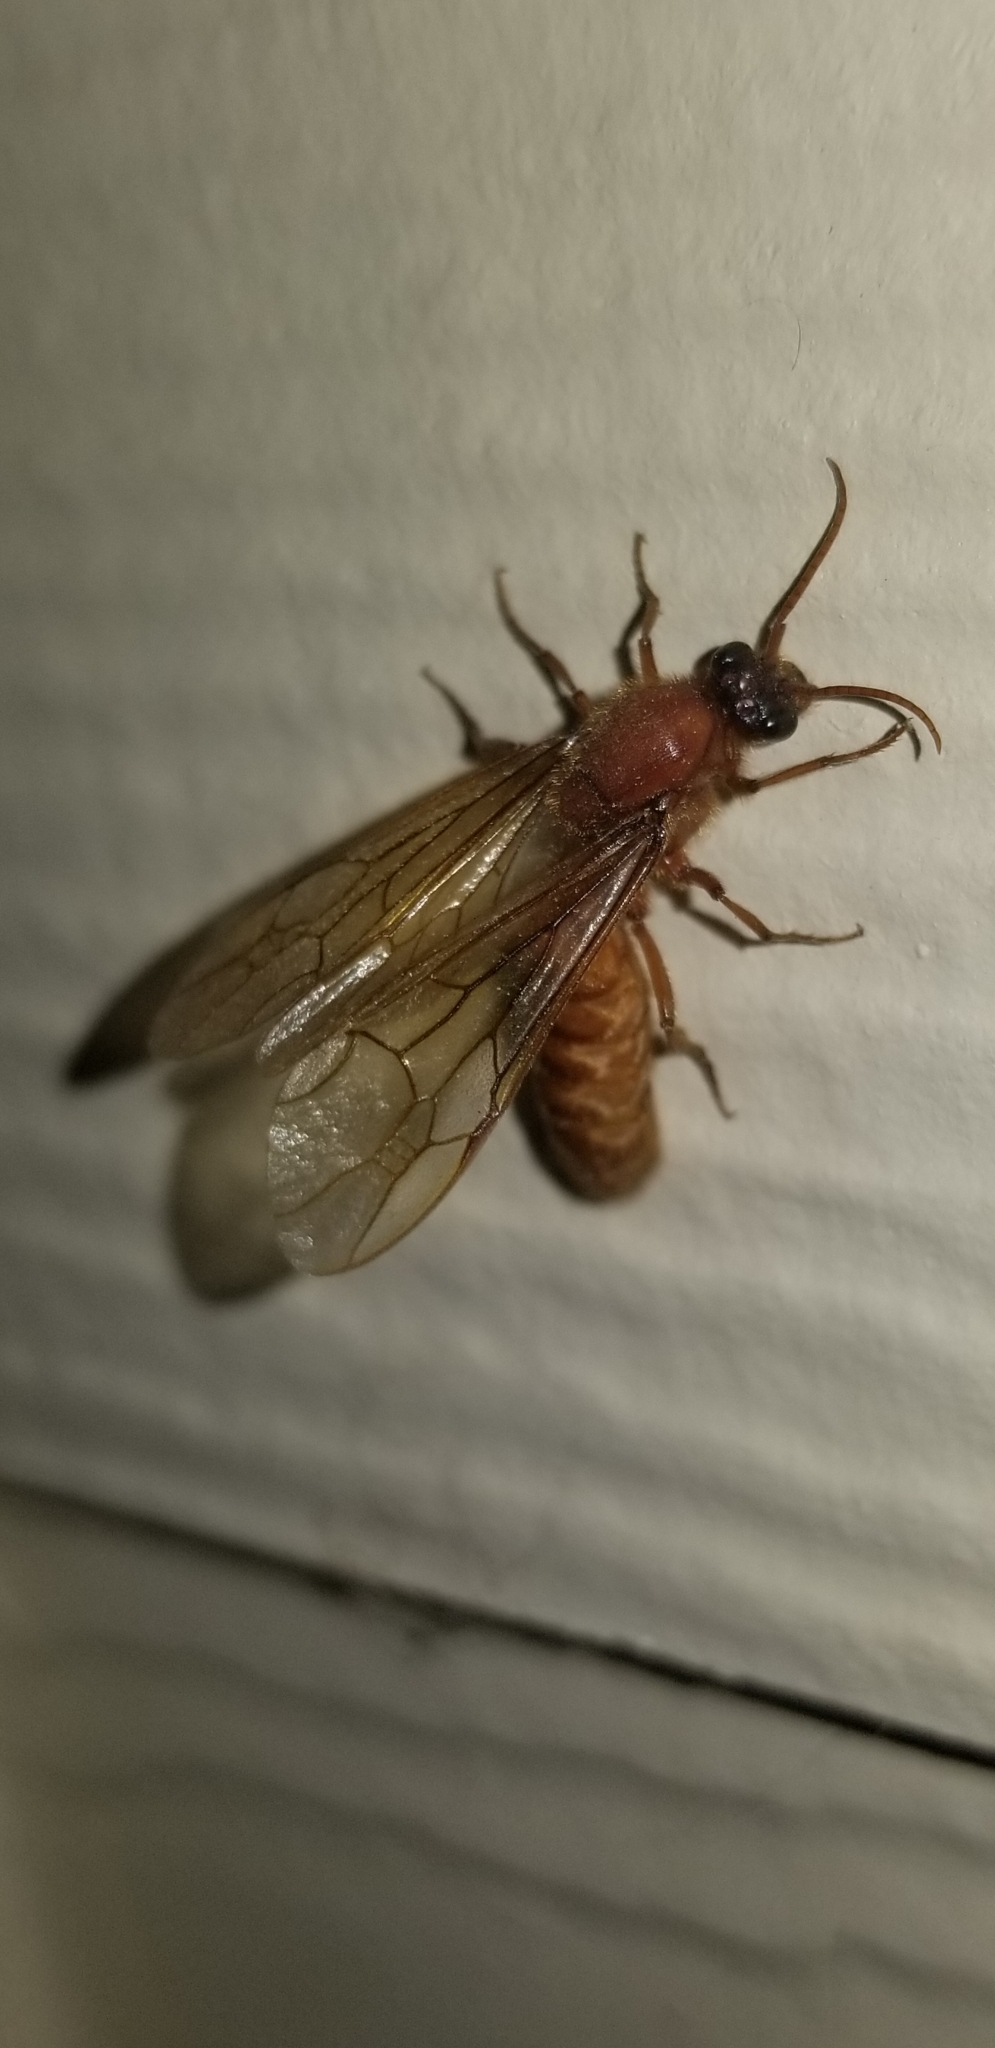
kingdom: Animalia
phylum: Arthropoda
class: Insecta
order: Hymenoptera
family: Formicidae
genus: Labidus
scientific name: Labidus coecus
